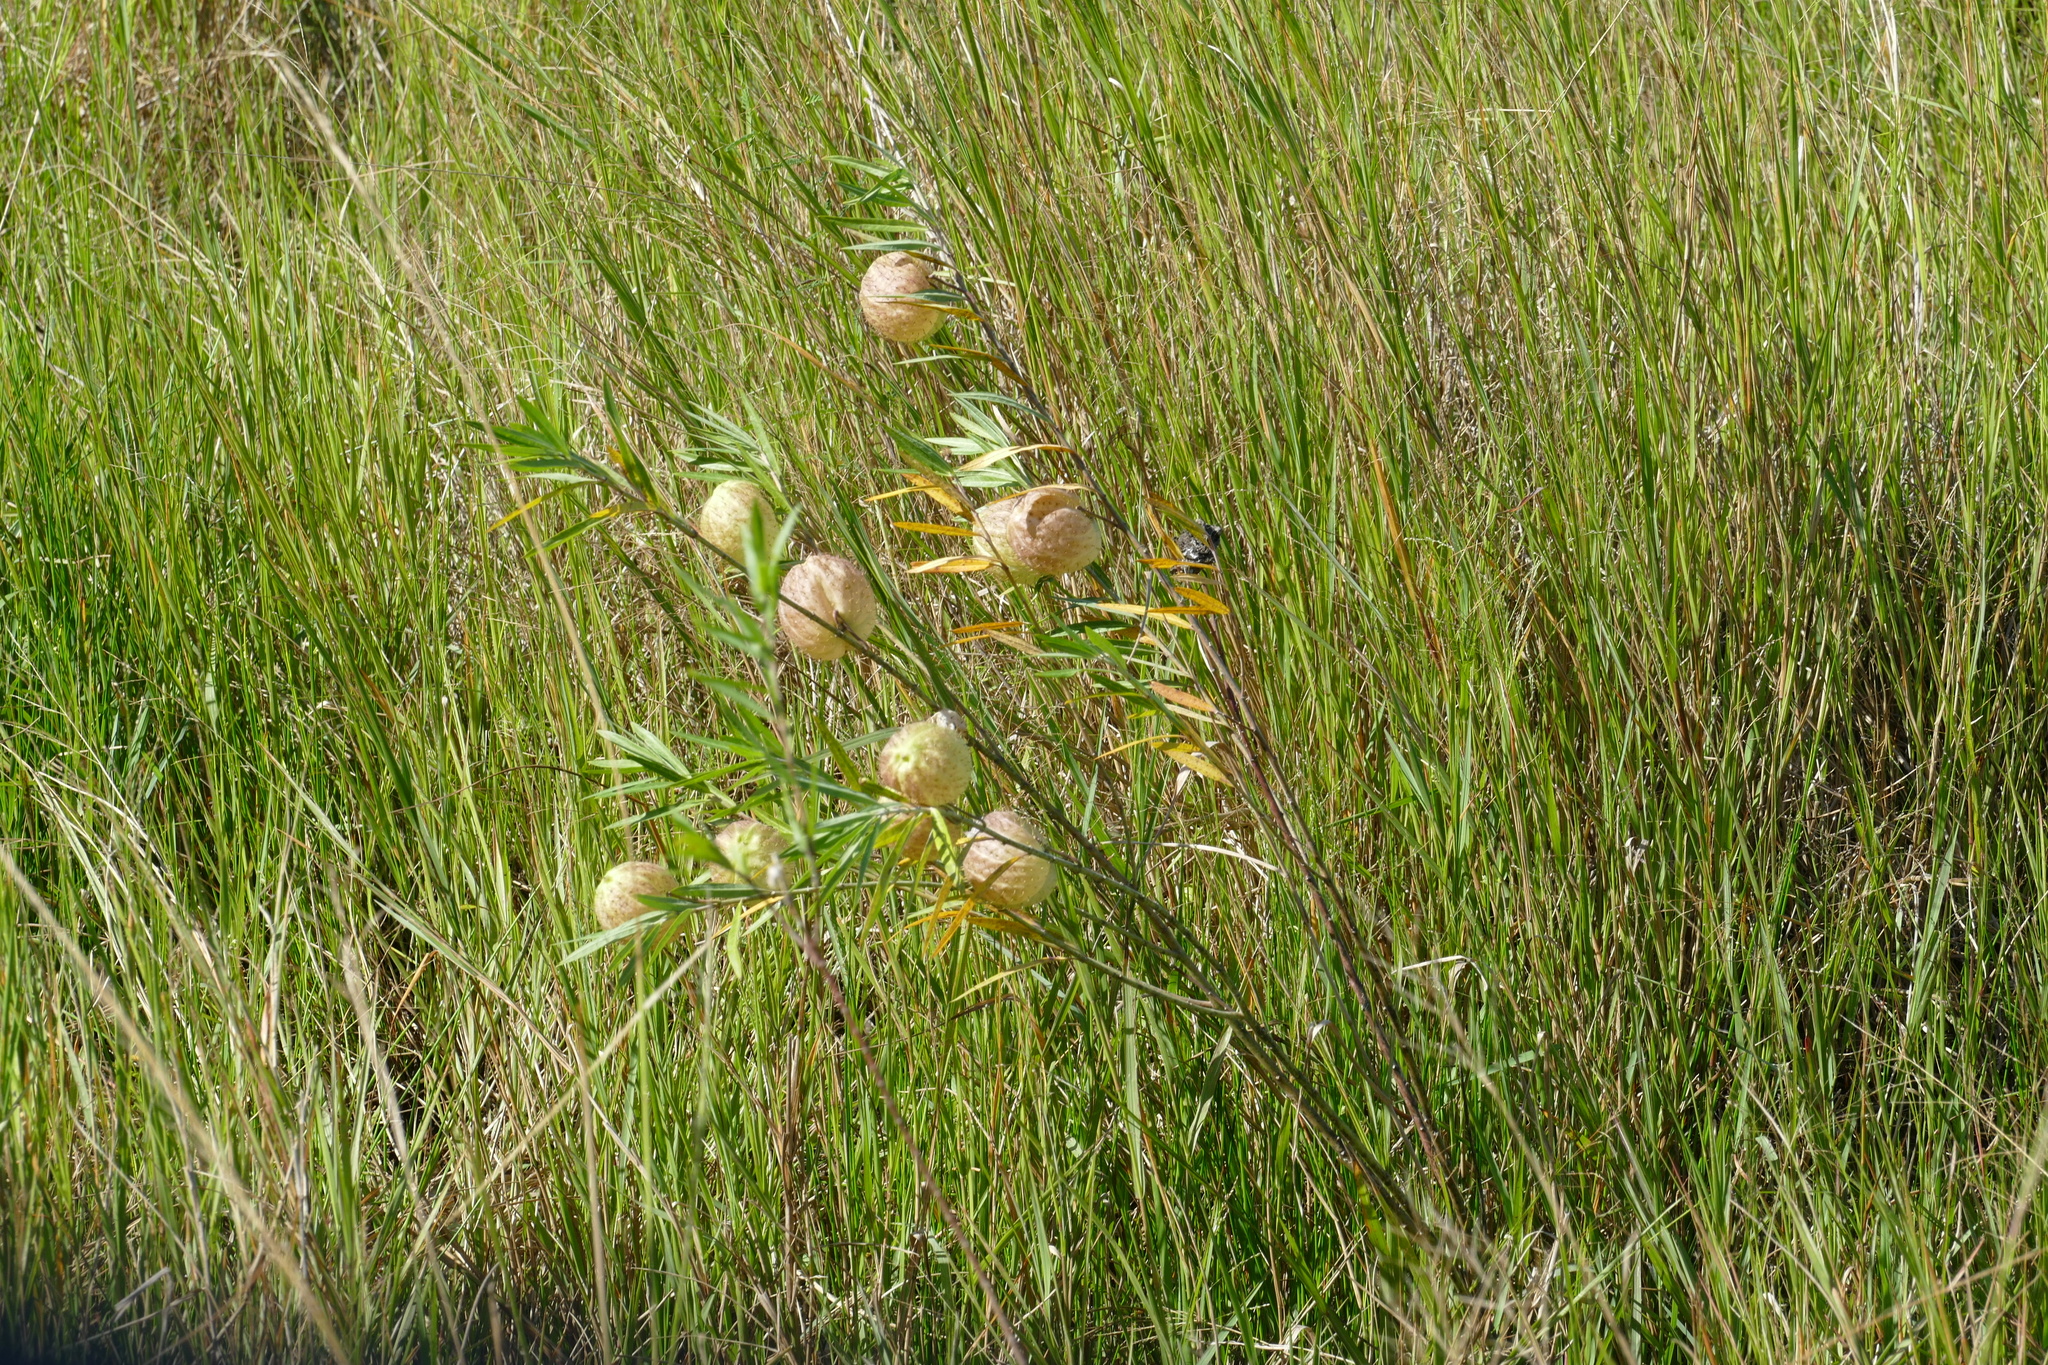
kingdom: Plantae
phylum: Tracheophyta
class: Magnoliopsida
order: Gentianales
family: Apocynaceae
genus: Gomphocarpus
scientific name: Gomphocarpus physocarpus
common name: Balloon cotton bush
